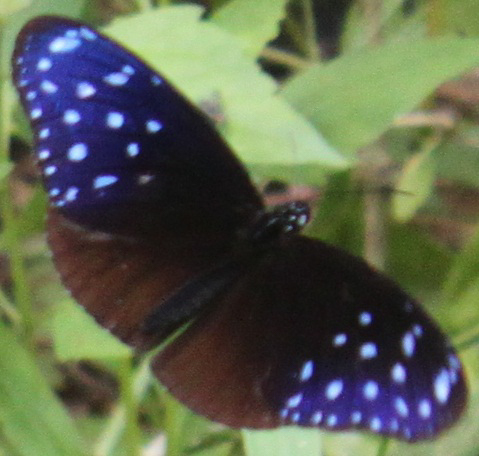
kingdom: Animalia
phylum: Arthropoda
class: Insecta
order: Lepidoptera
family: Nymphalidae
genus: Euploea
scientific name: Euploea mulciber
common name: Striped blue crow butterfly
